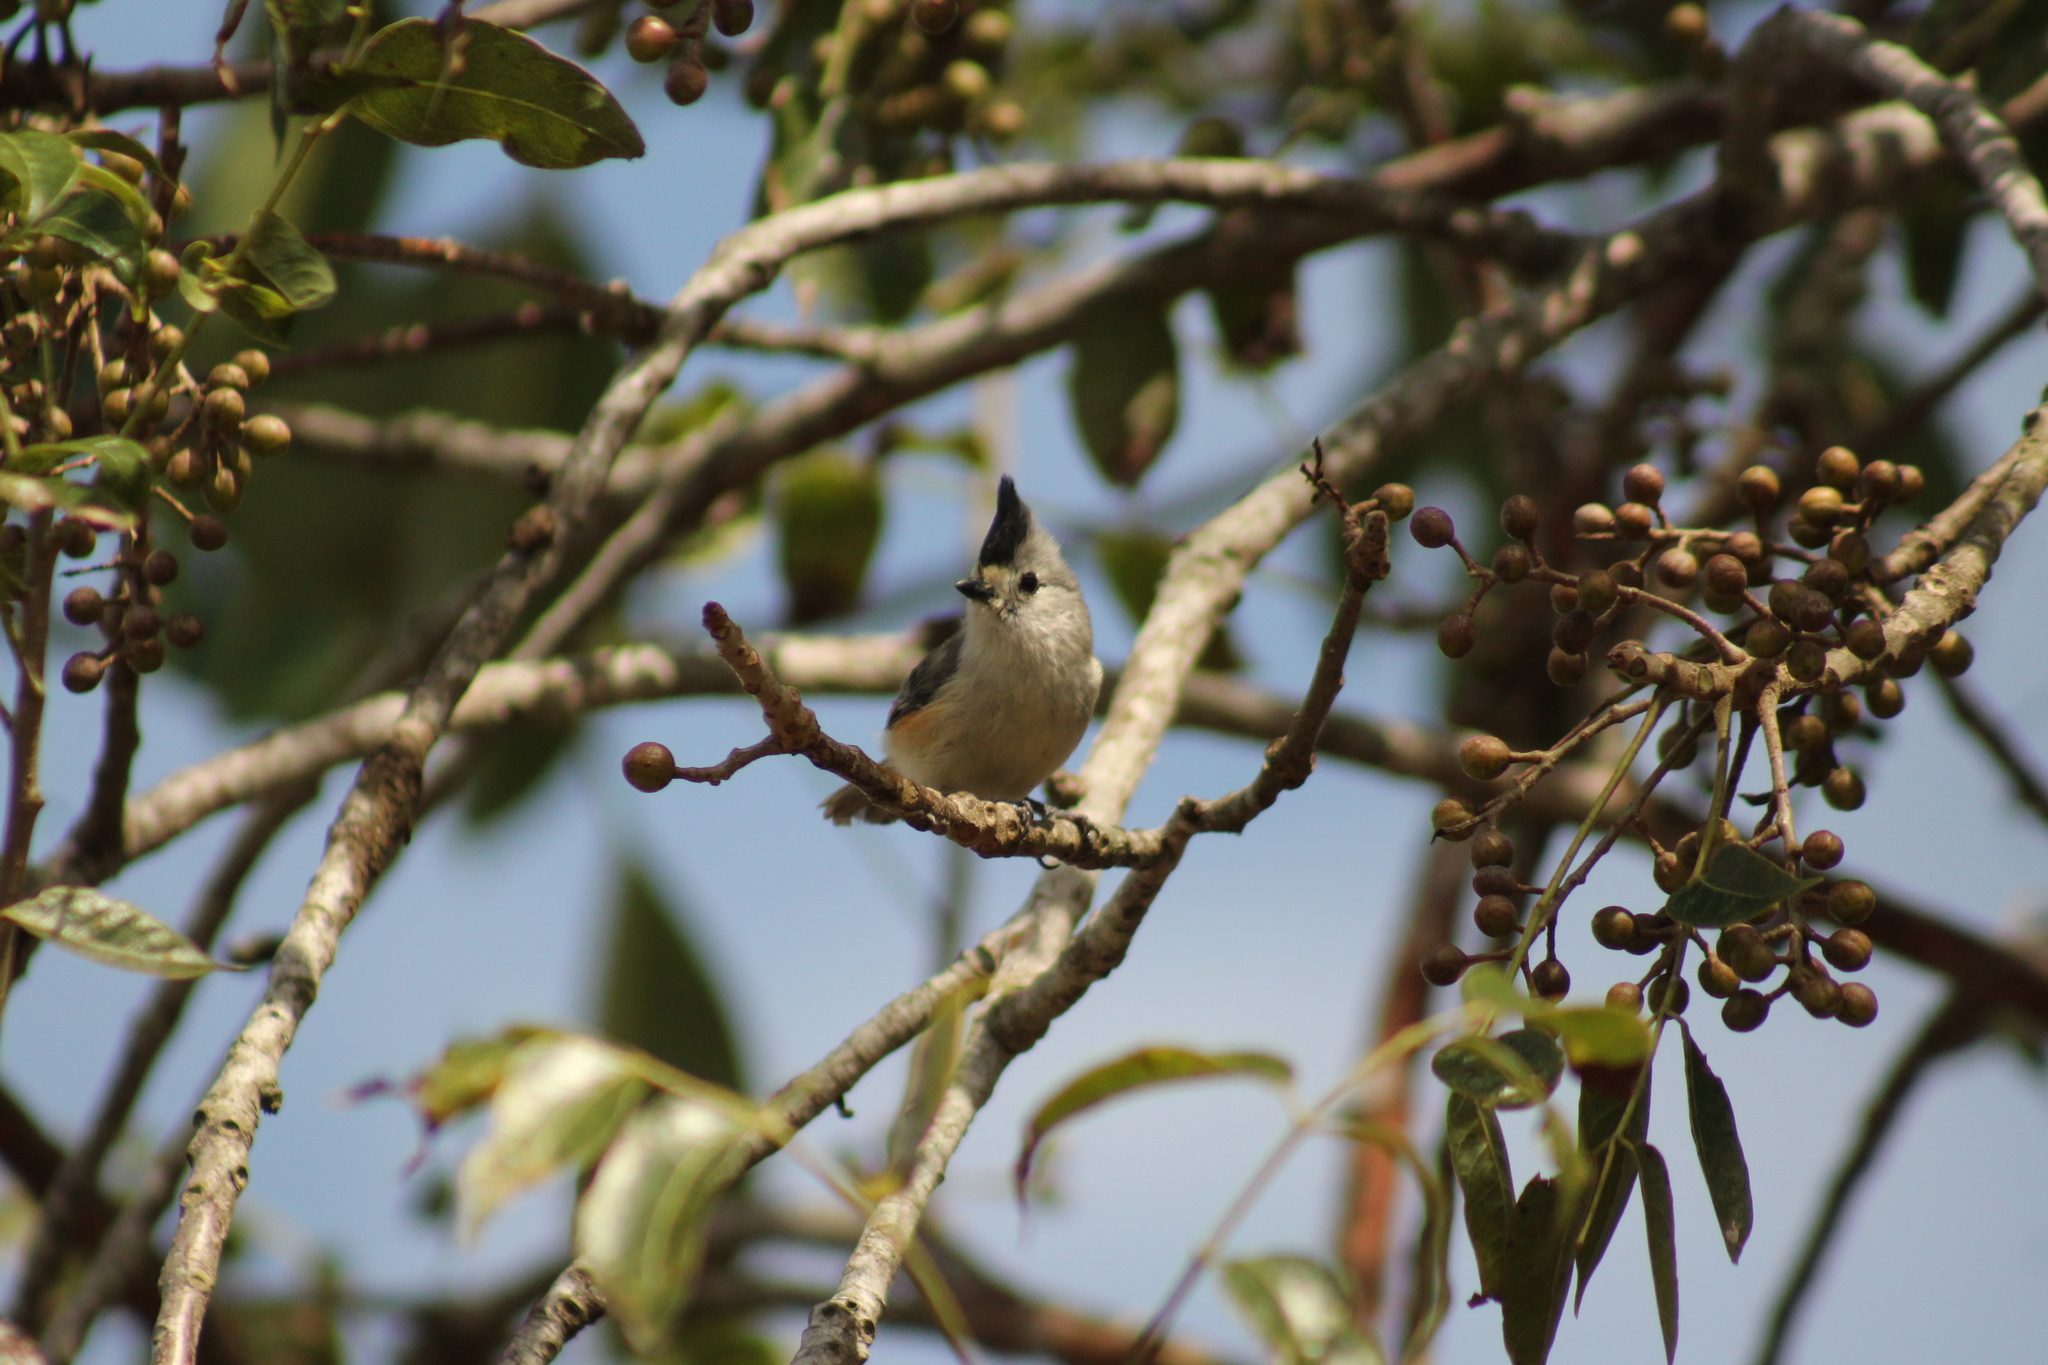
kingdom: Animalia
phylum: Chordata
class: Aves
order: Passeriformes
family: Paridae
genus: Baeolophus
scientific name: Baeolophus atricristatus
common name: Black-crested titmouse
